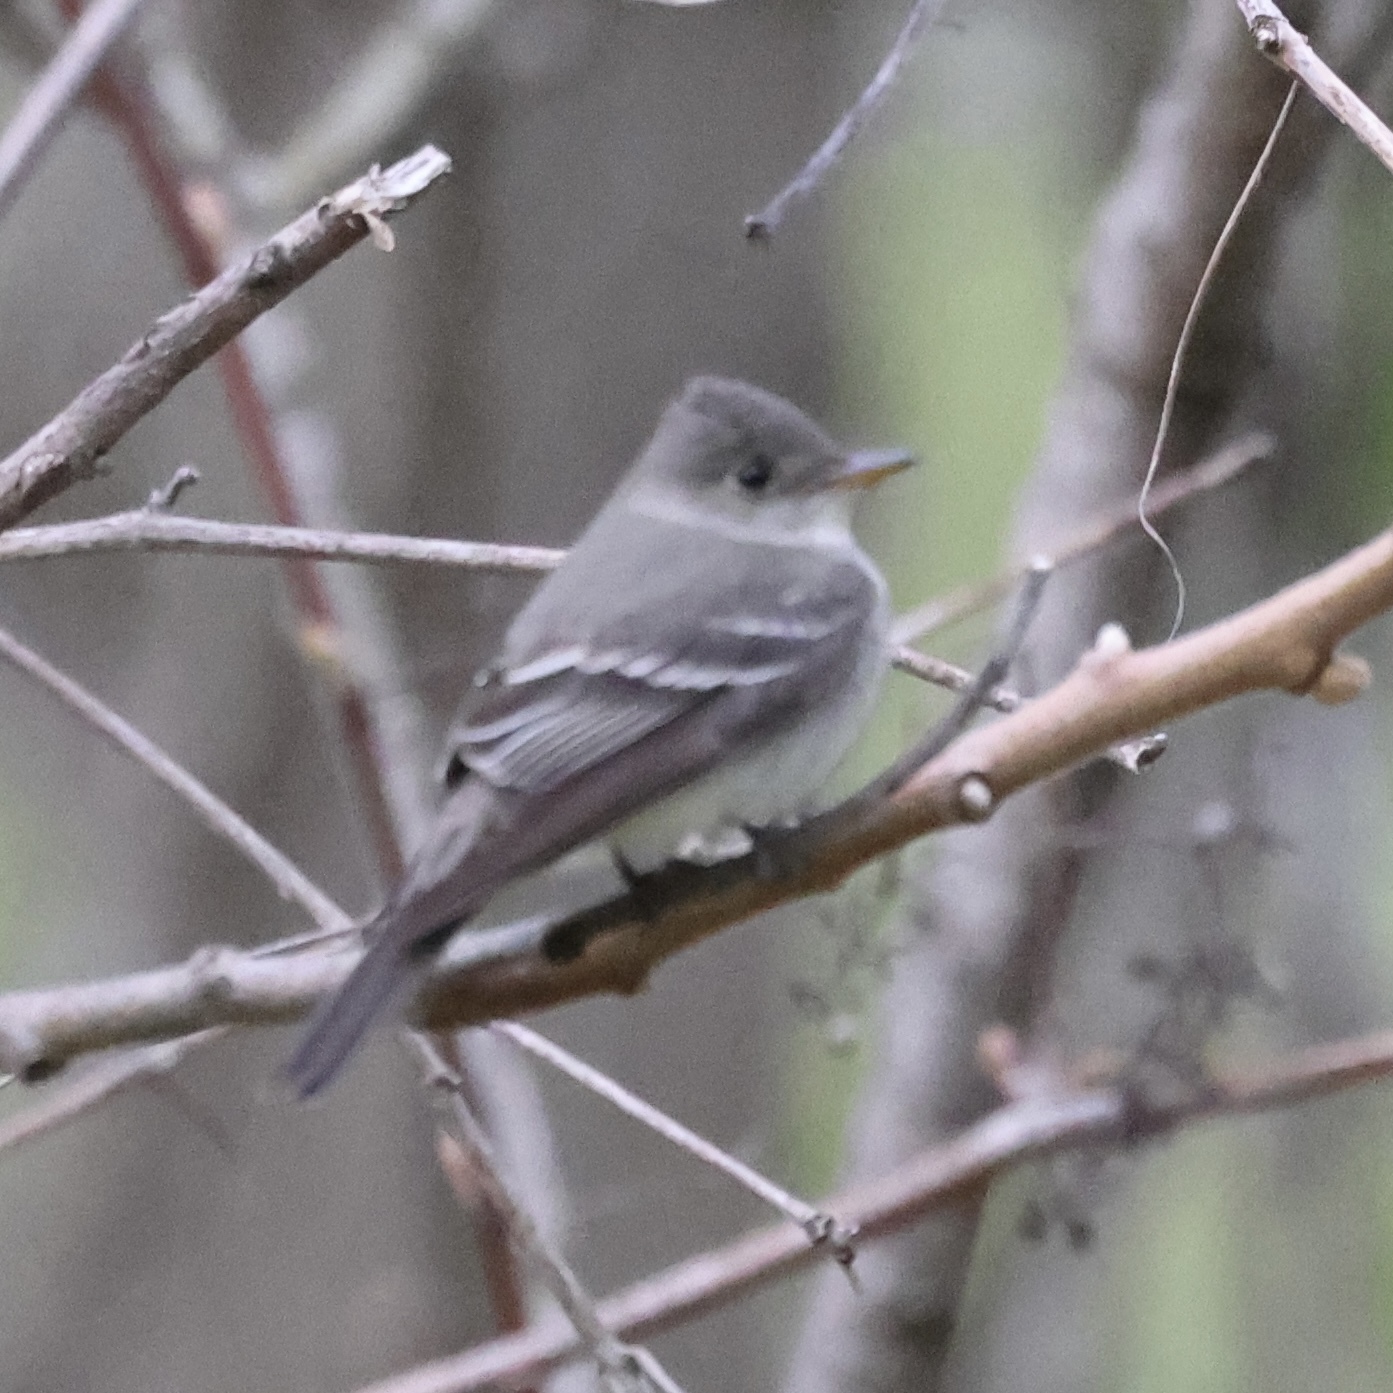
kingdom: Animalia
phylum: Chordata
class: Aves
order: Passeriformes
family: Tyrannidae
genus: Contopus
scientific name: Contopus virens
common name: Eastern wood-pewee
